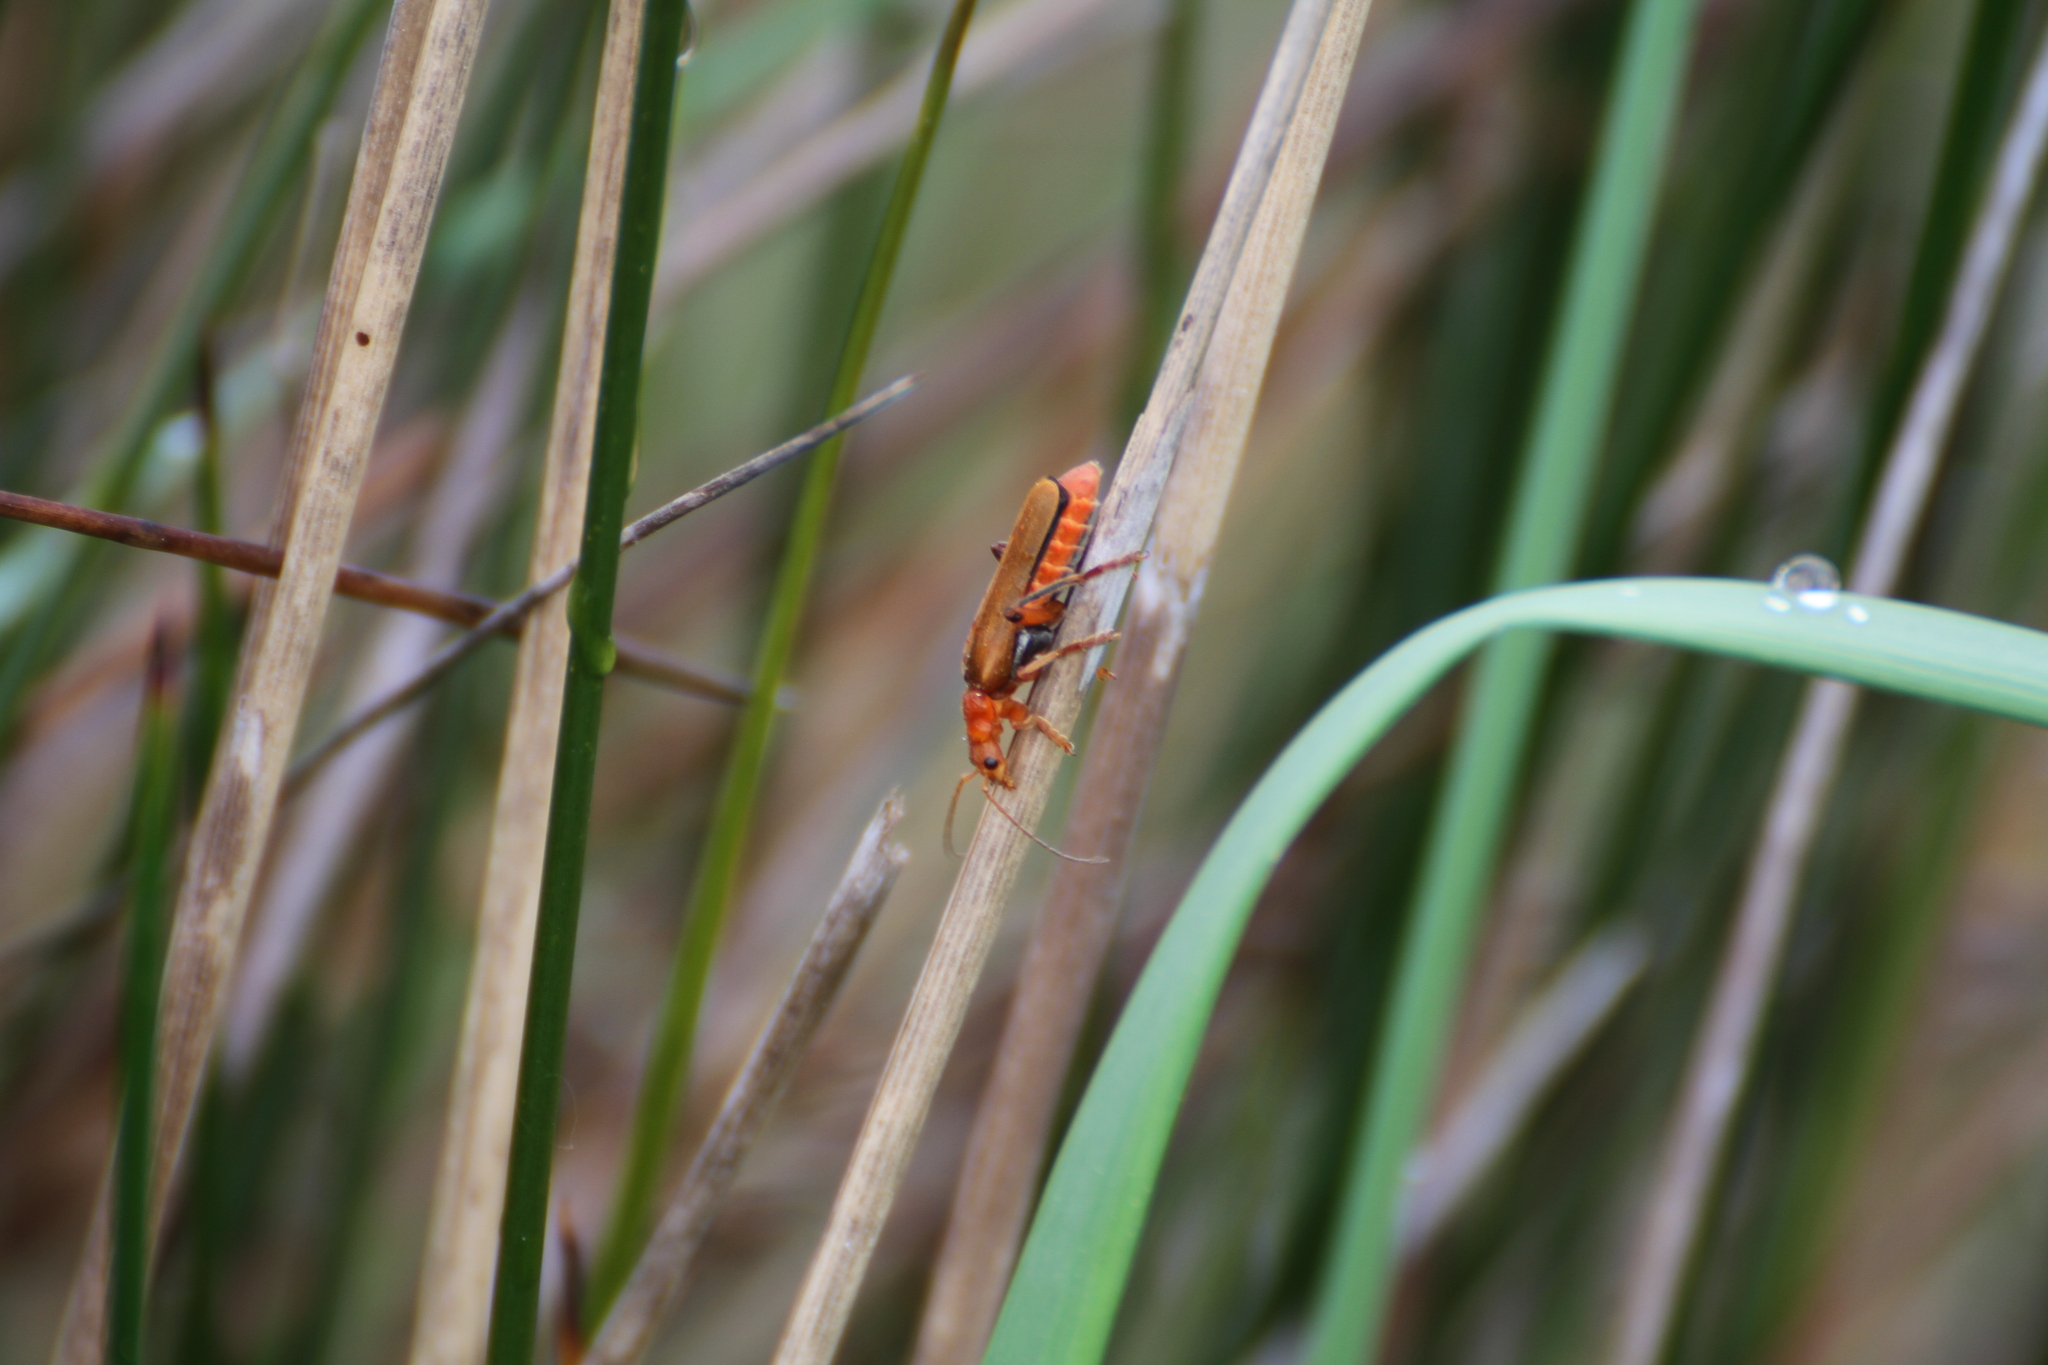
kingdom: Animalia
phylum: Arthropoda
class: Insecta
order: Coleoptera
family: Cantharidae
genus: Rhagonycha
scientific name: Rhagonycha fulva
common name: Common red soldier beetle
